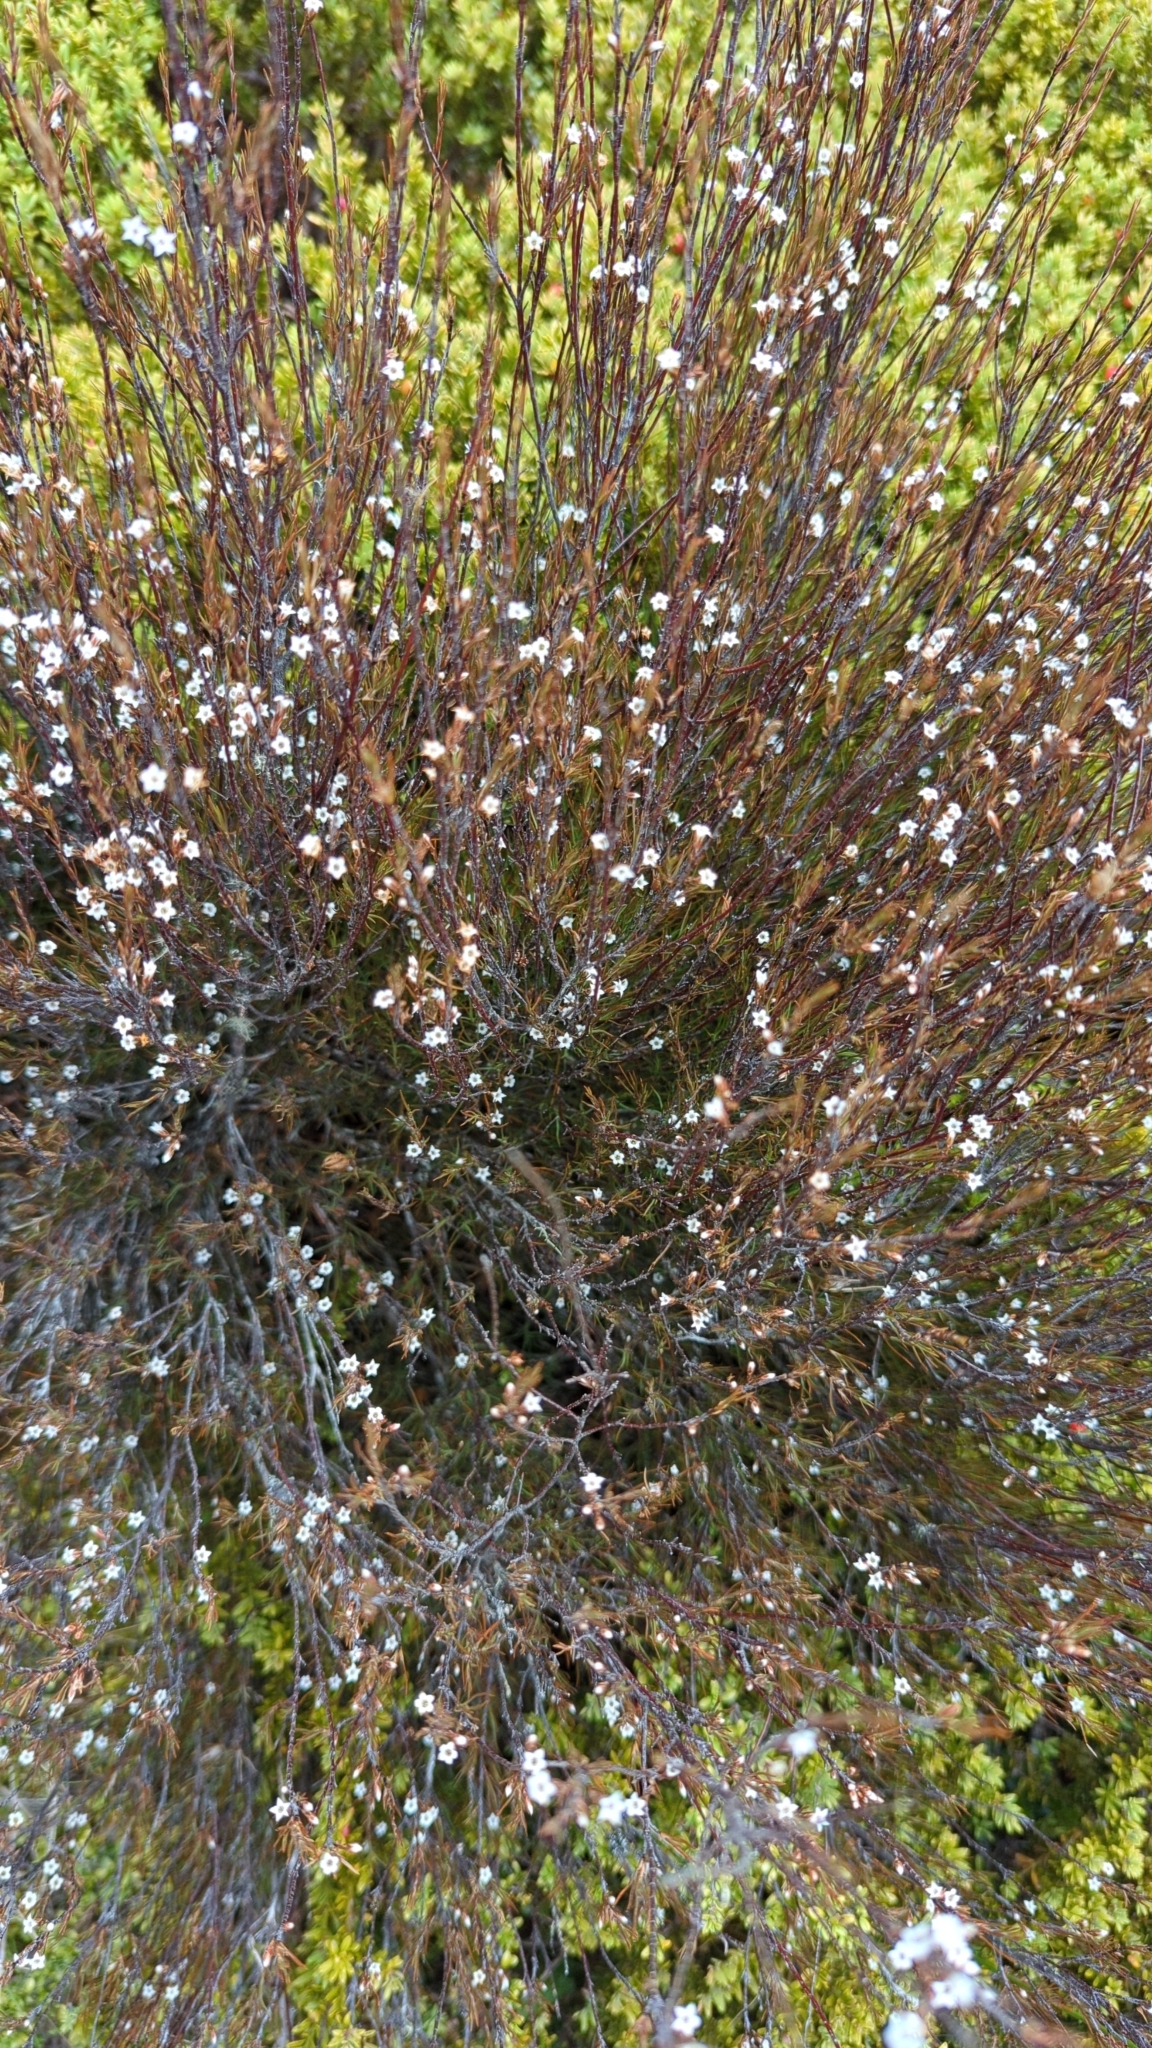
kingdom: Plantae
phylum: Tracheophyta
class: Magnoliopsida
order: Ericales
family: Ericaceae
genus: Dracophyllum
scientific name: Dracophyllum subulatum
